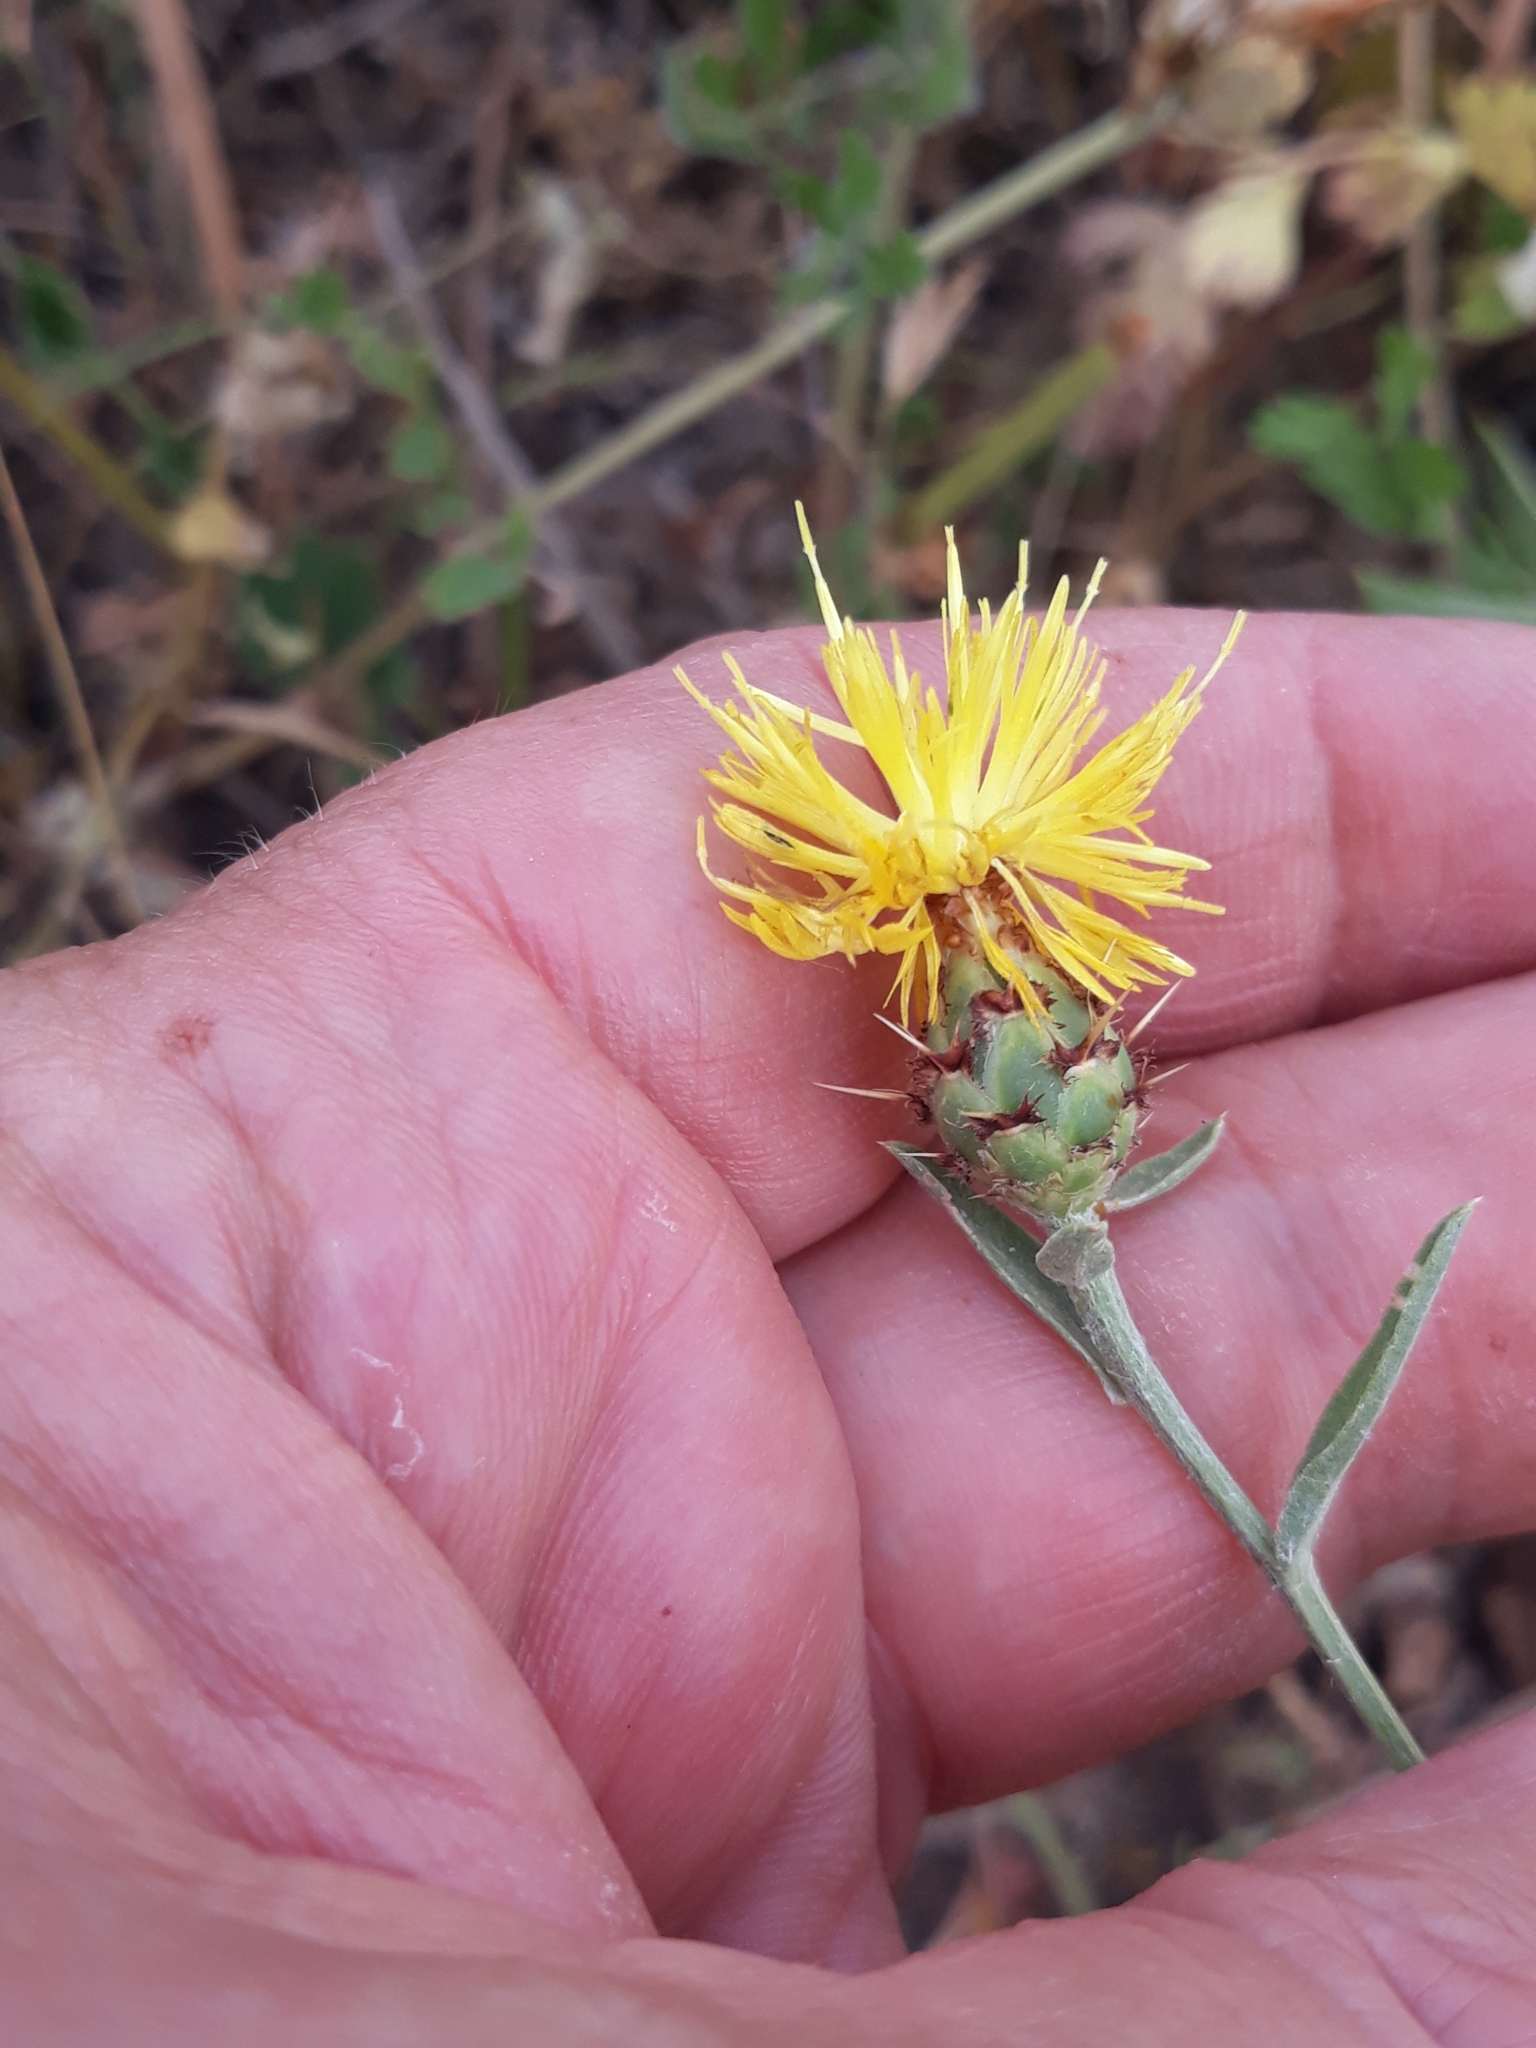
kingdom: Plantae
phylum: Tracheophyta
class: Magnoliopsida
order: Asterales
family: Asteraceae
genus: Centaurea
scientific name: Centaurea sicula
